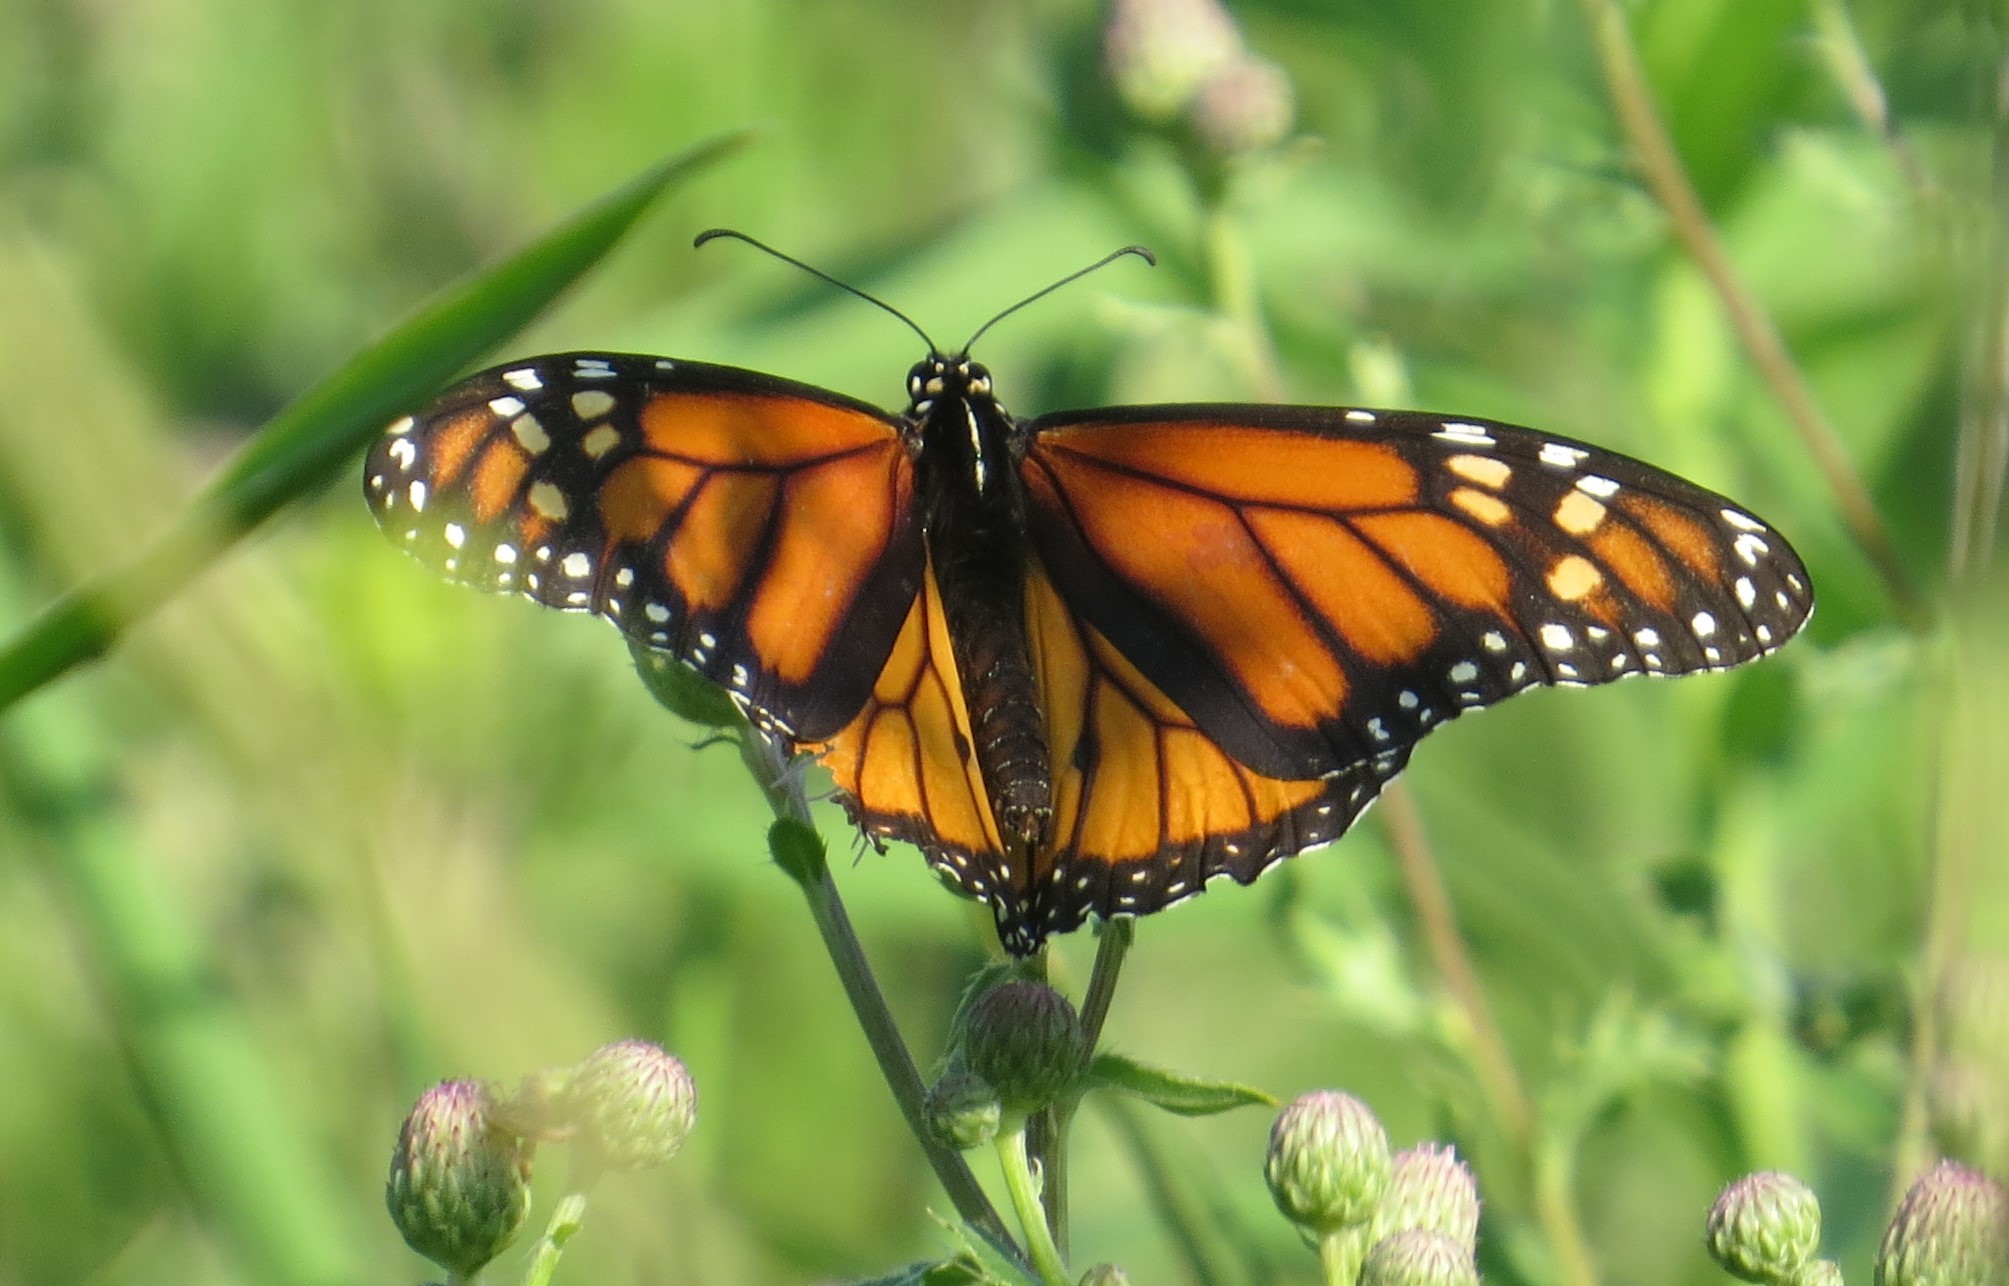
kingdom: Animalia
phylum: Arthropoda
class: Insecta
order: Lepidoptera
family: Nymphalidae
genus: Danaus
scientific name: Danaus plexippus
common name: Monarch
